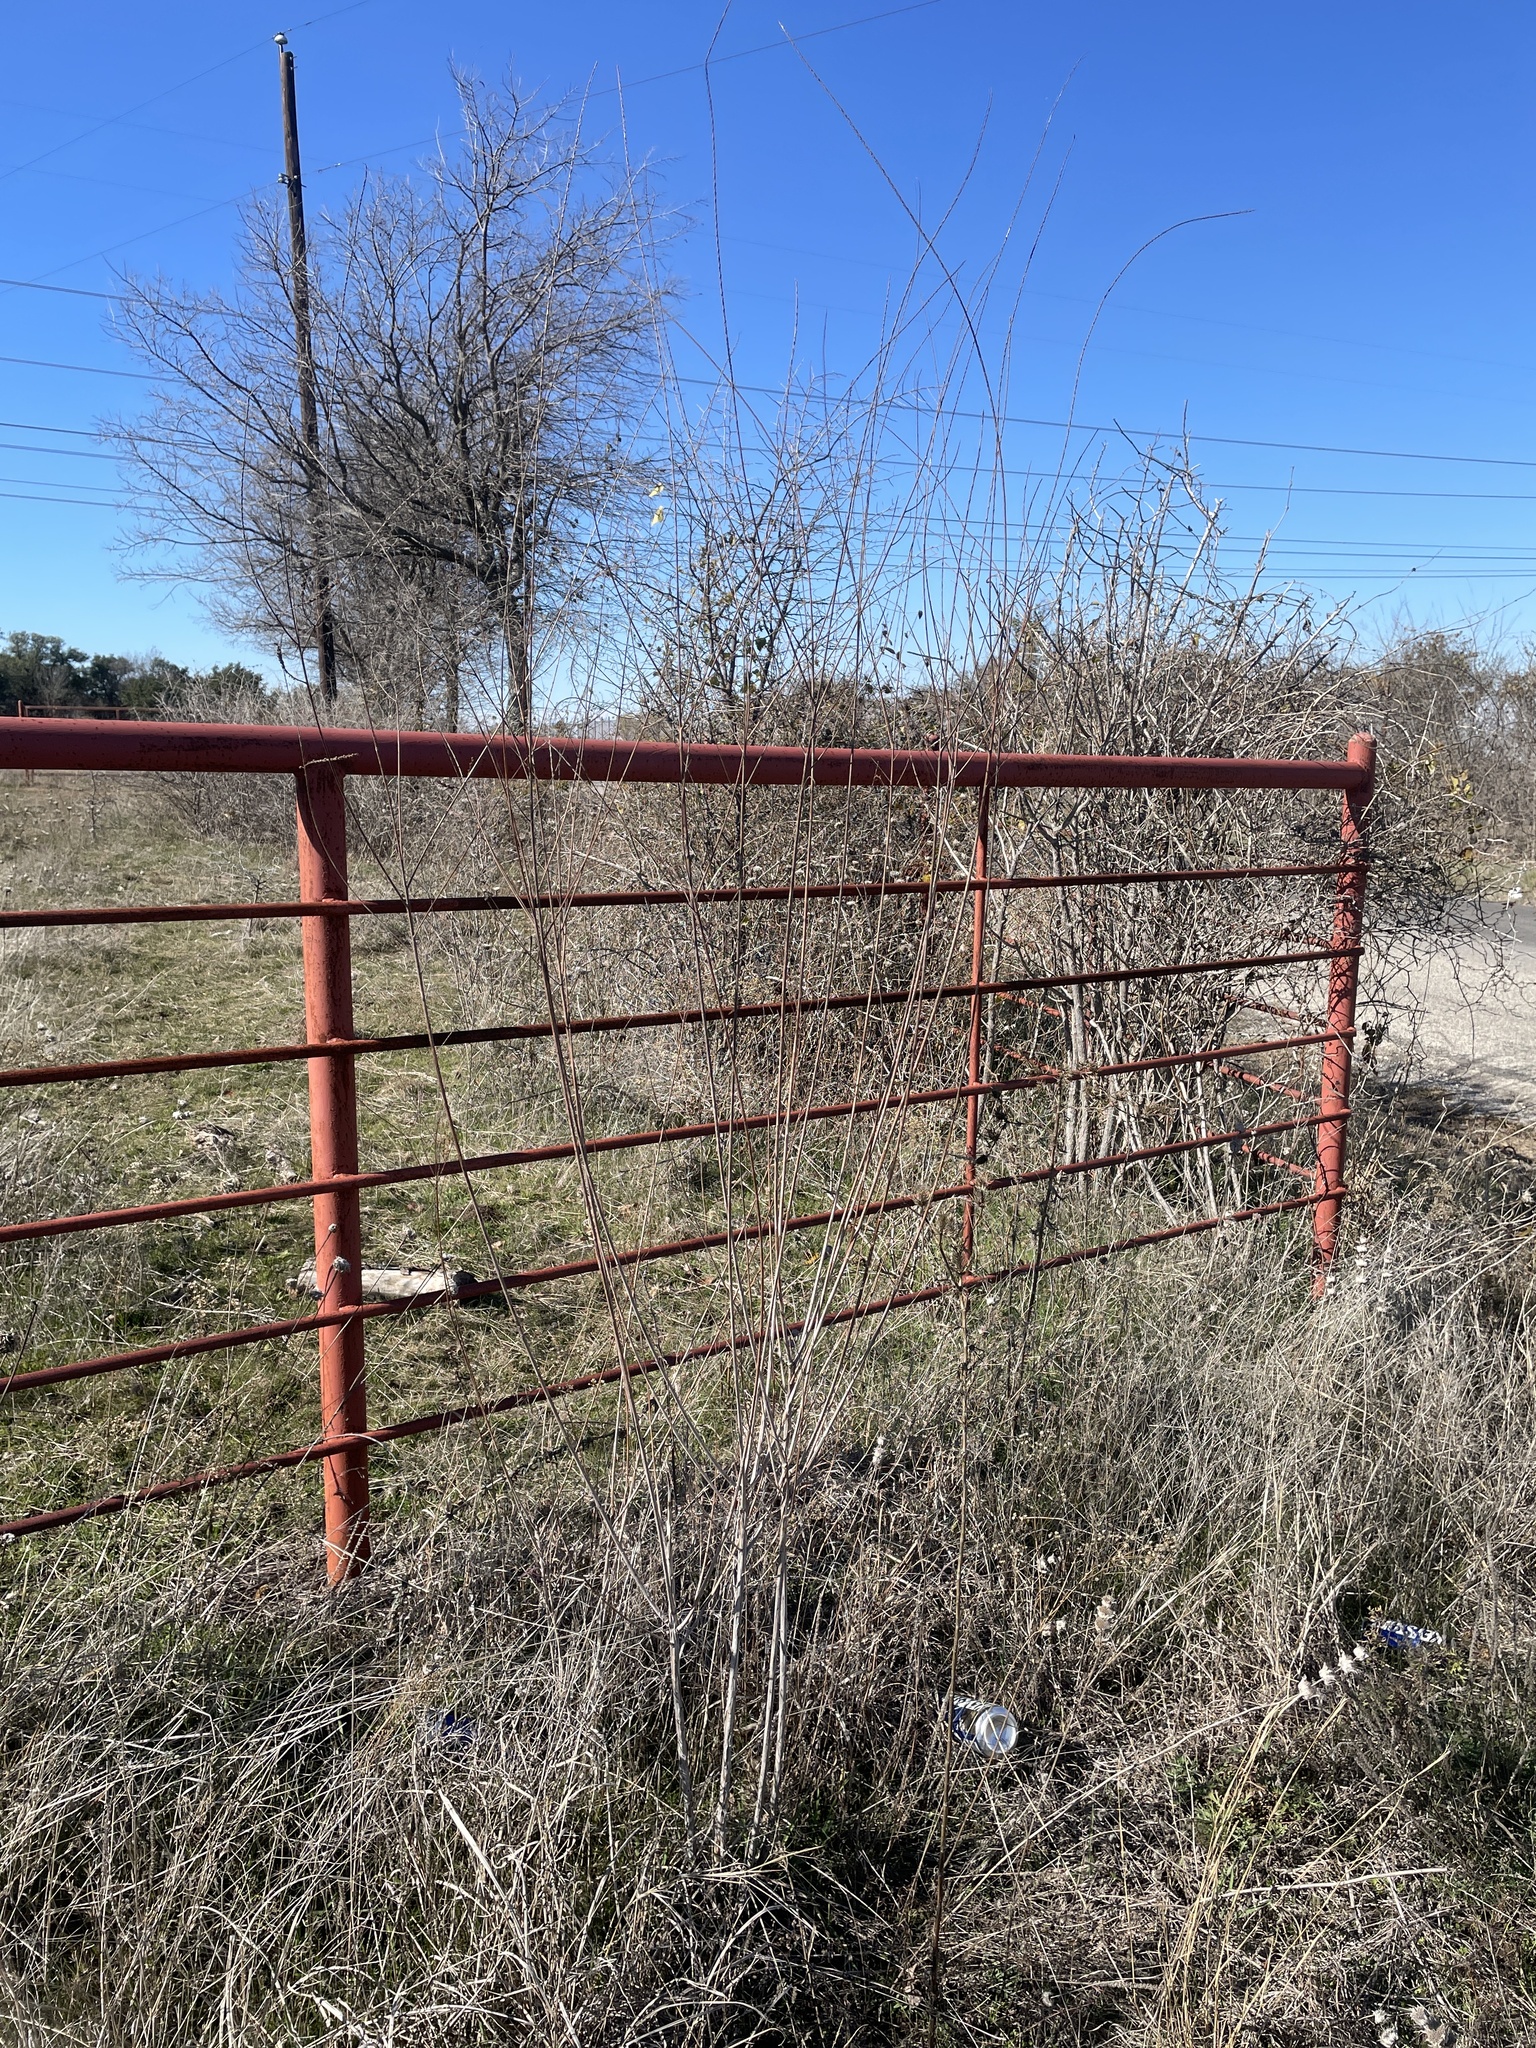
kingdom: Plantae
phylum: Tracheophyta
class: Magnoliopsida
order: Myrtales
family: Onagraceae
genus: Oenothera
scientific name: Oenothera glaucifolia
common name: False gaura
